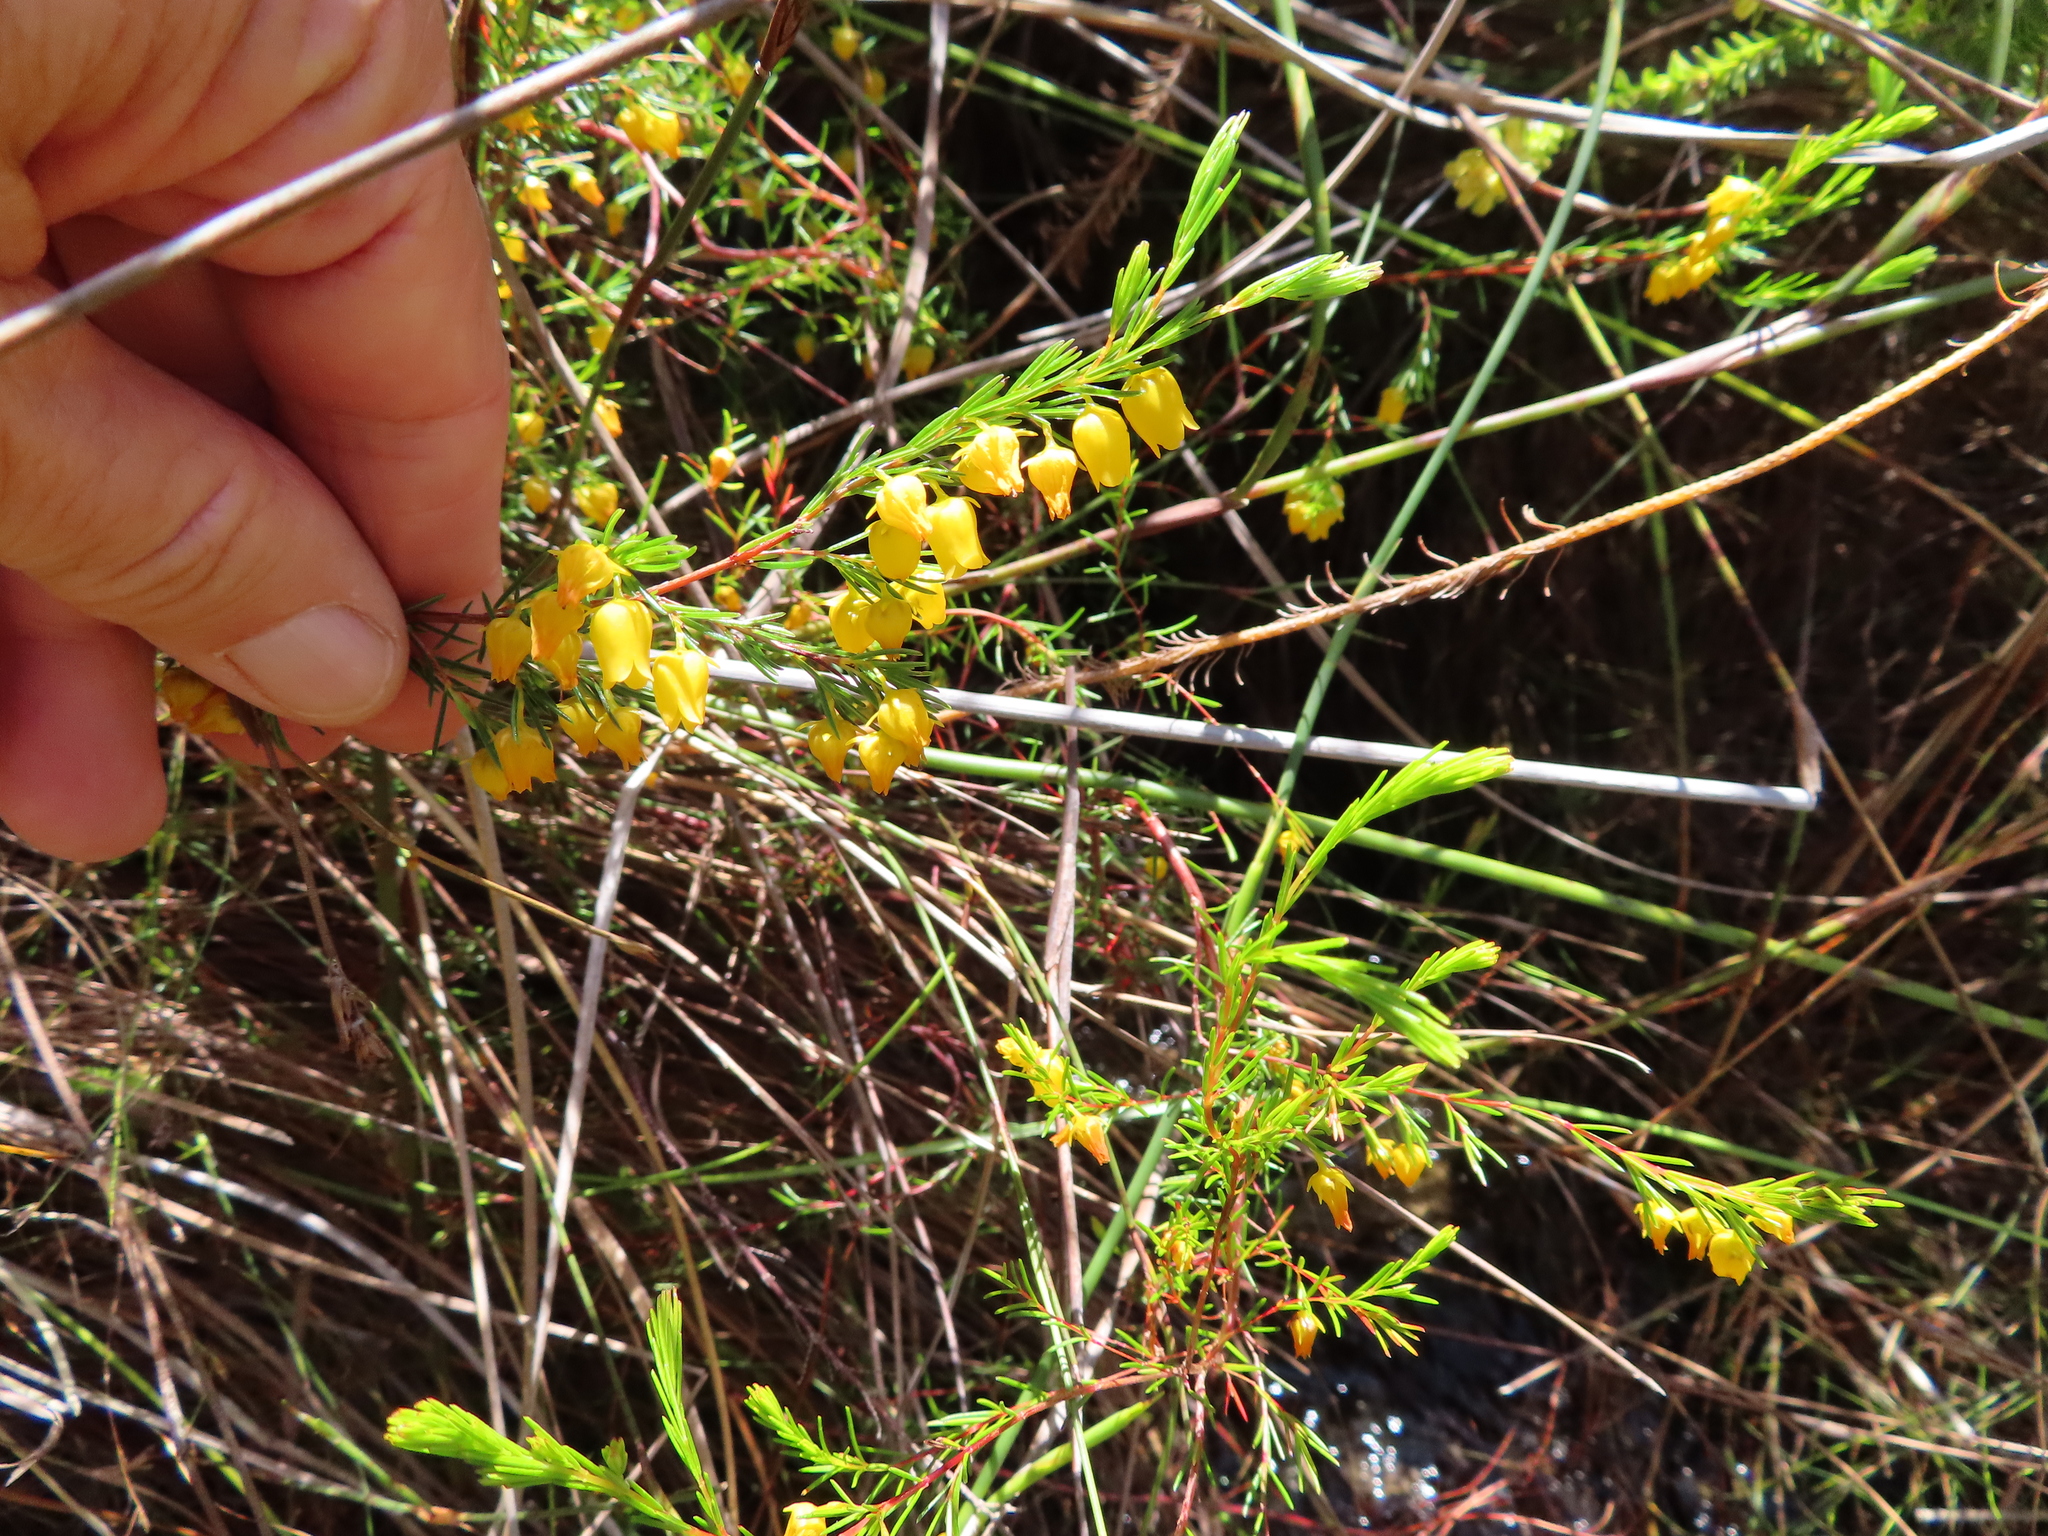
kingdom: Plantae
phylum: Tracheophyta
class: Magnoliopsida
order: Ericales
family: Ericaceae
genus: Erica
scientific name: Erica campanularis
